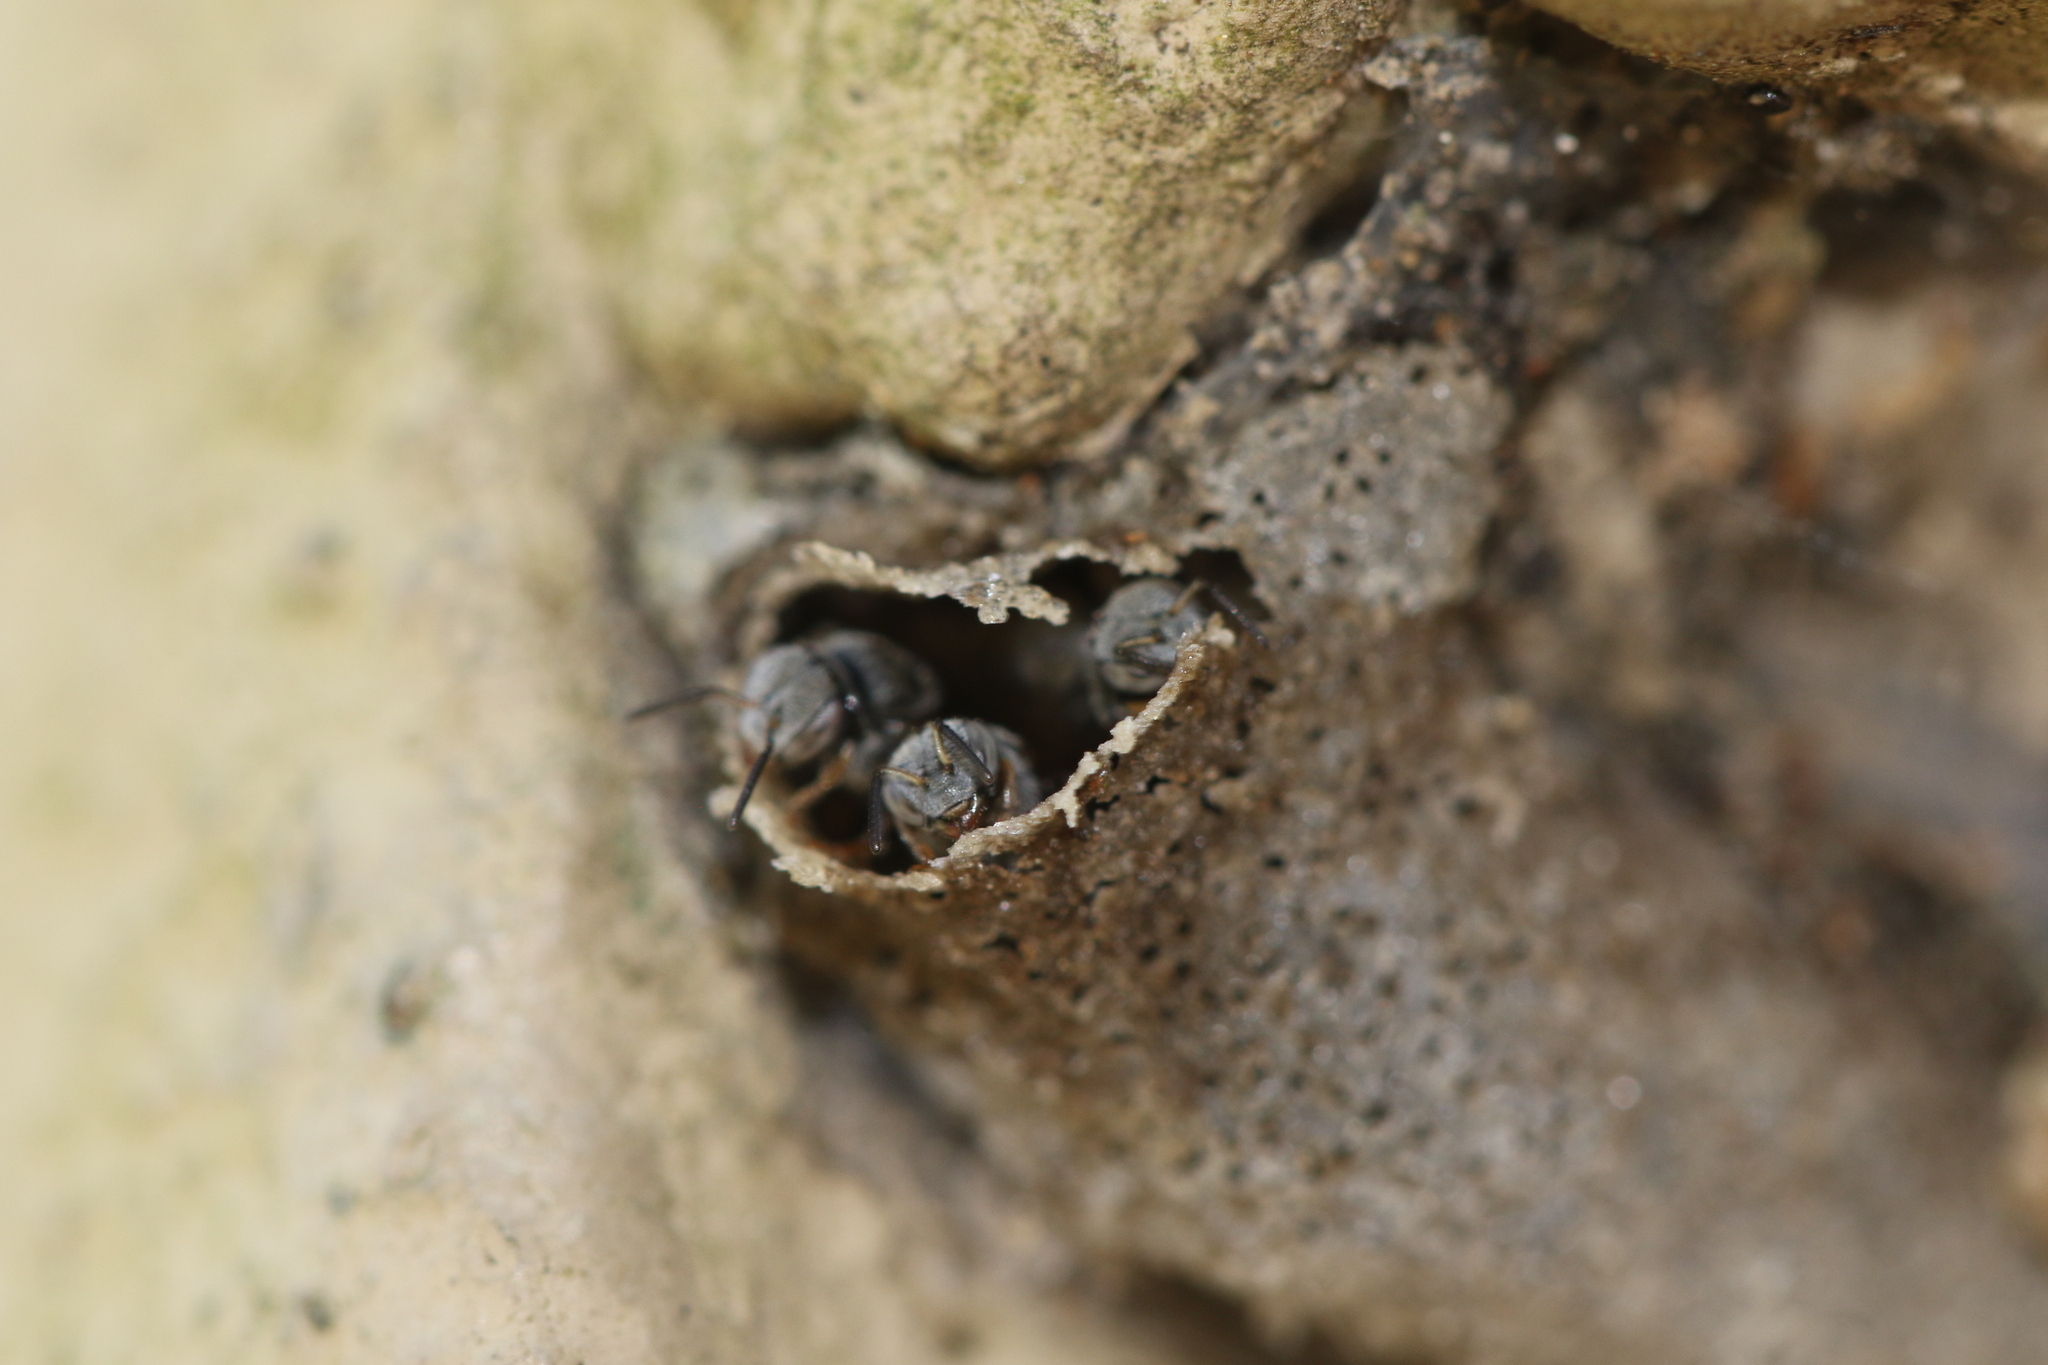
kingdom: Animalia
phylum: Arthropoda
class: Insecta
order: Hymenoptera
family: Apidae
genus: Friesella
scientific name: Friesella schrottkyi
